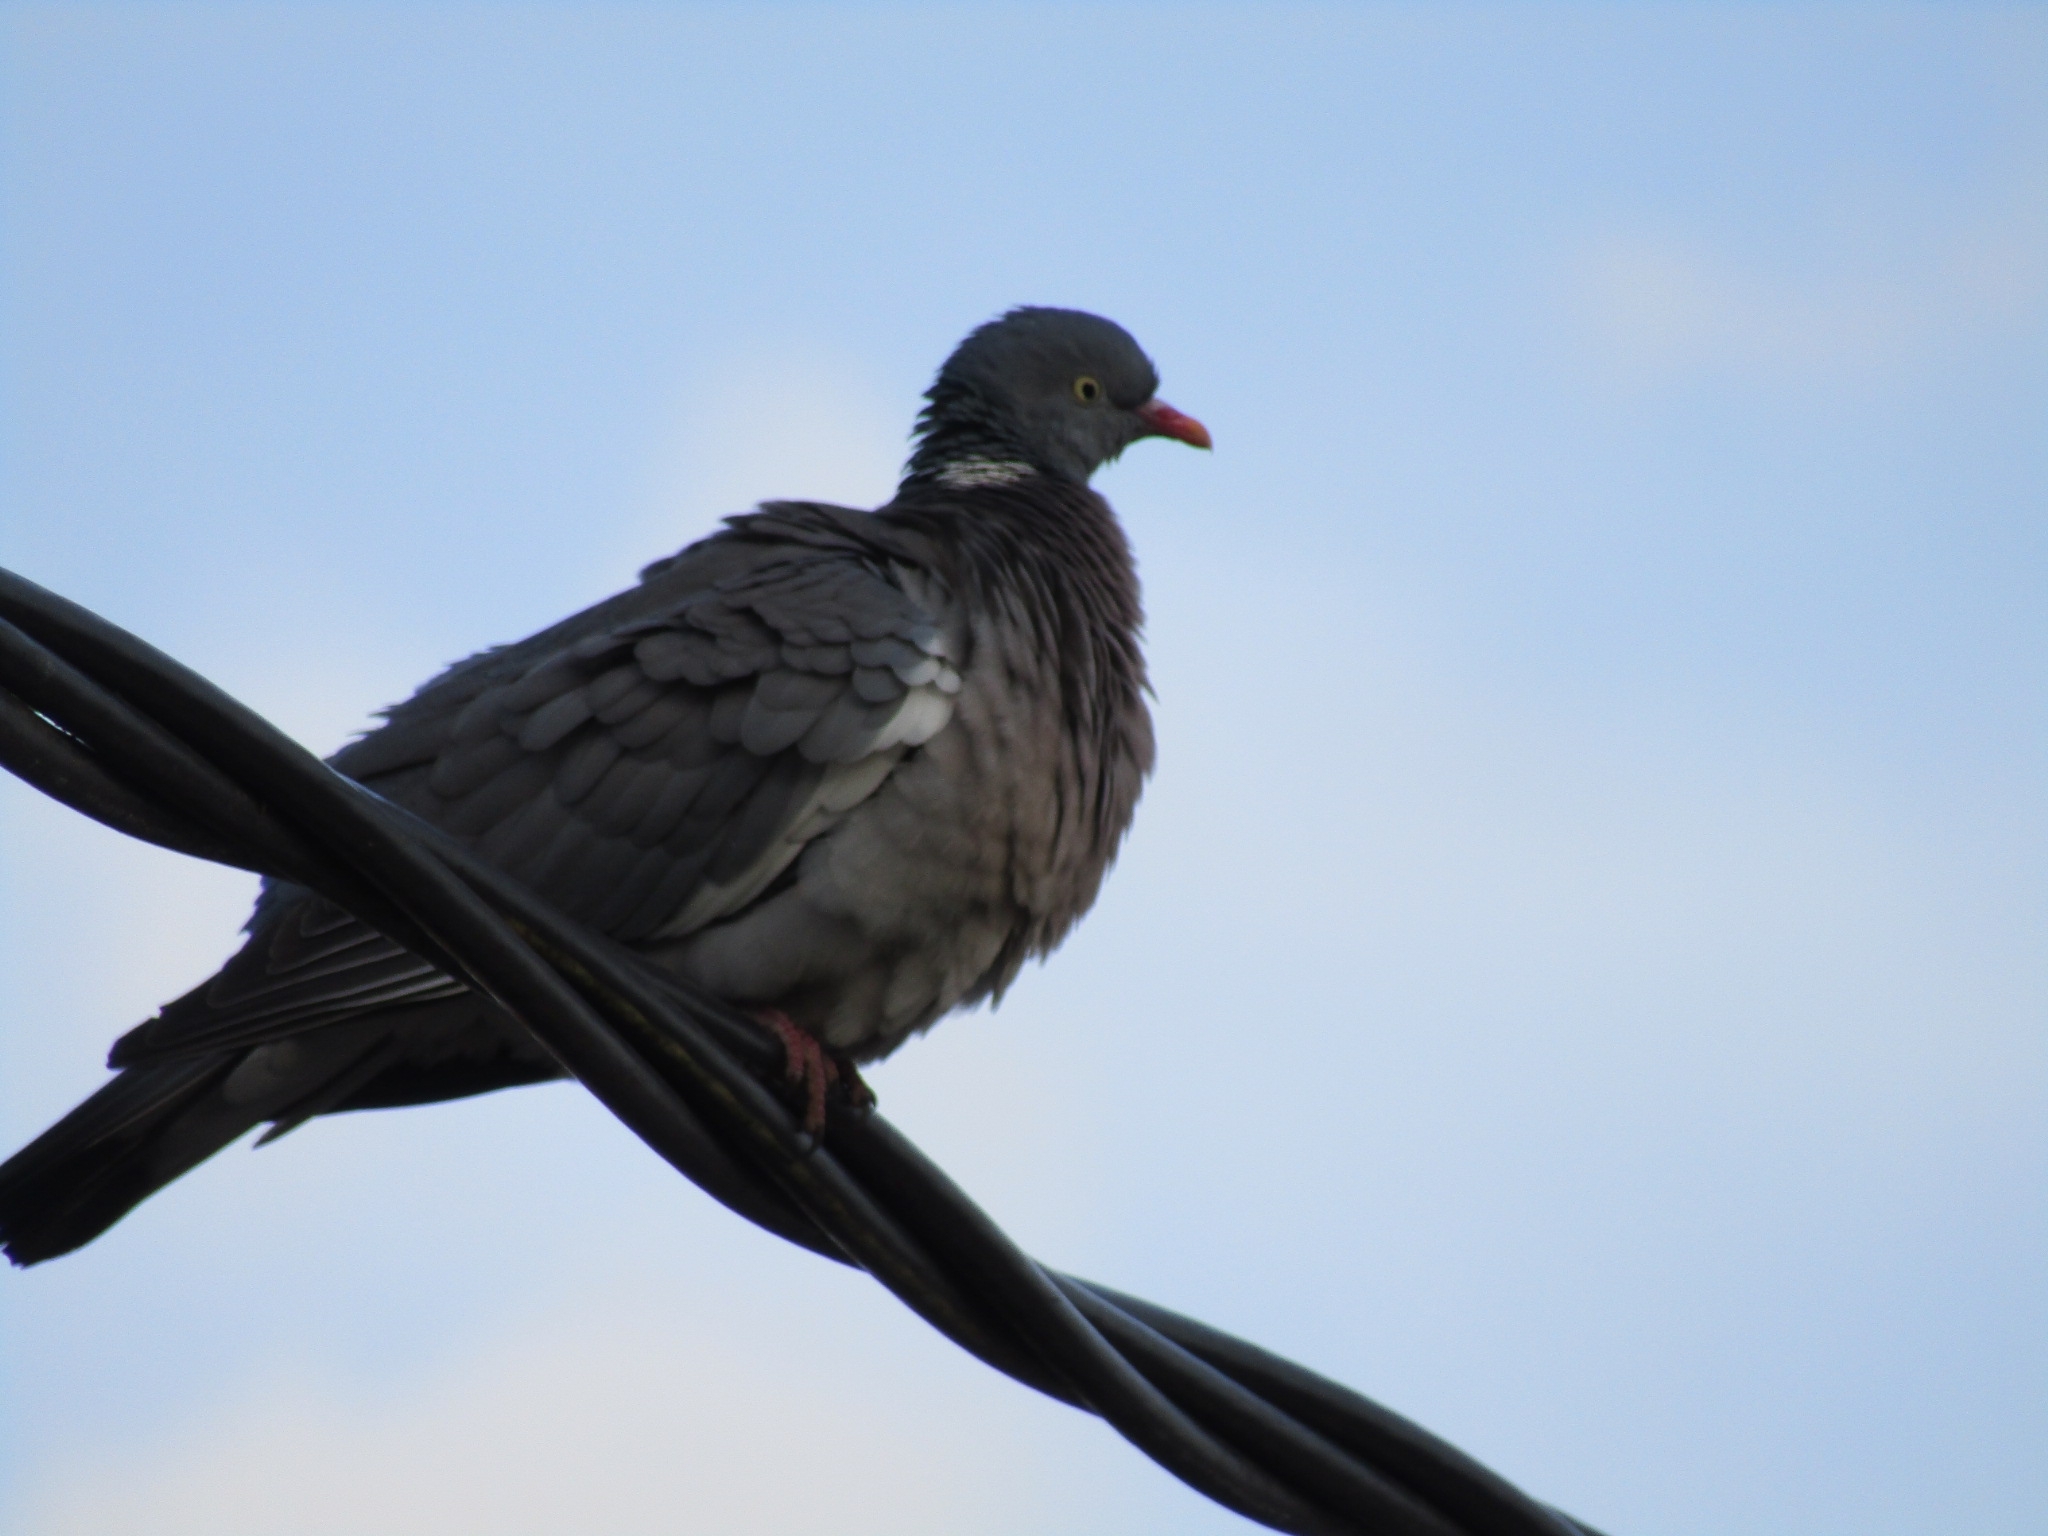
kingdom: Animalia
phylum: Chordata
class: Aves
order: Columbiformes
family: Columbidae
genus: Columba
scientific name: Columba palumbus
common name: Common wood pigeon
